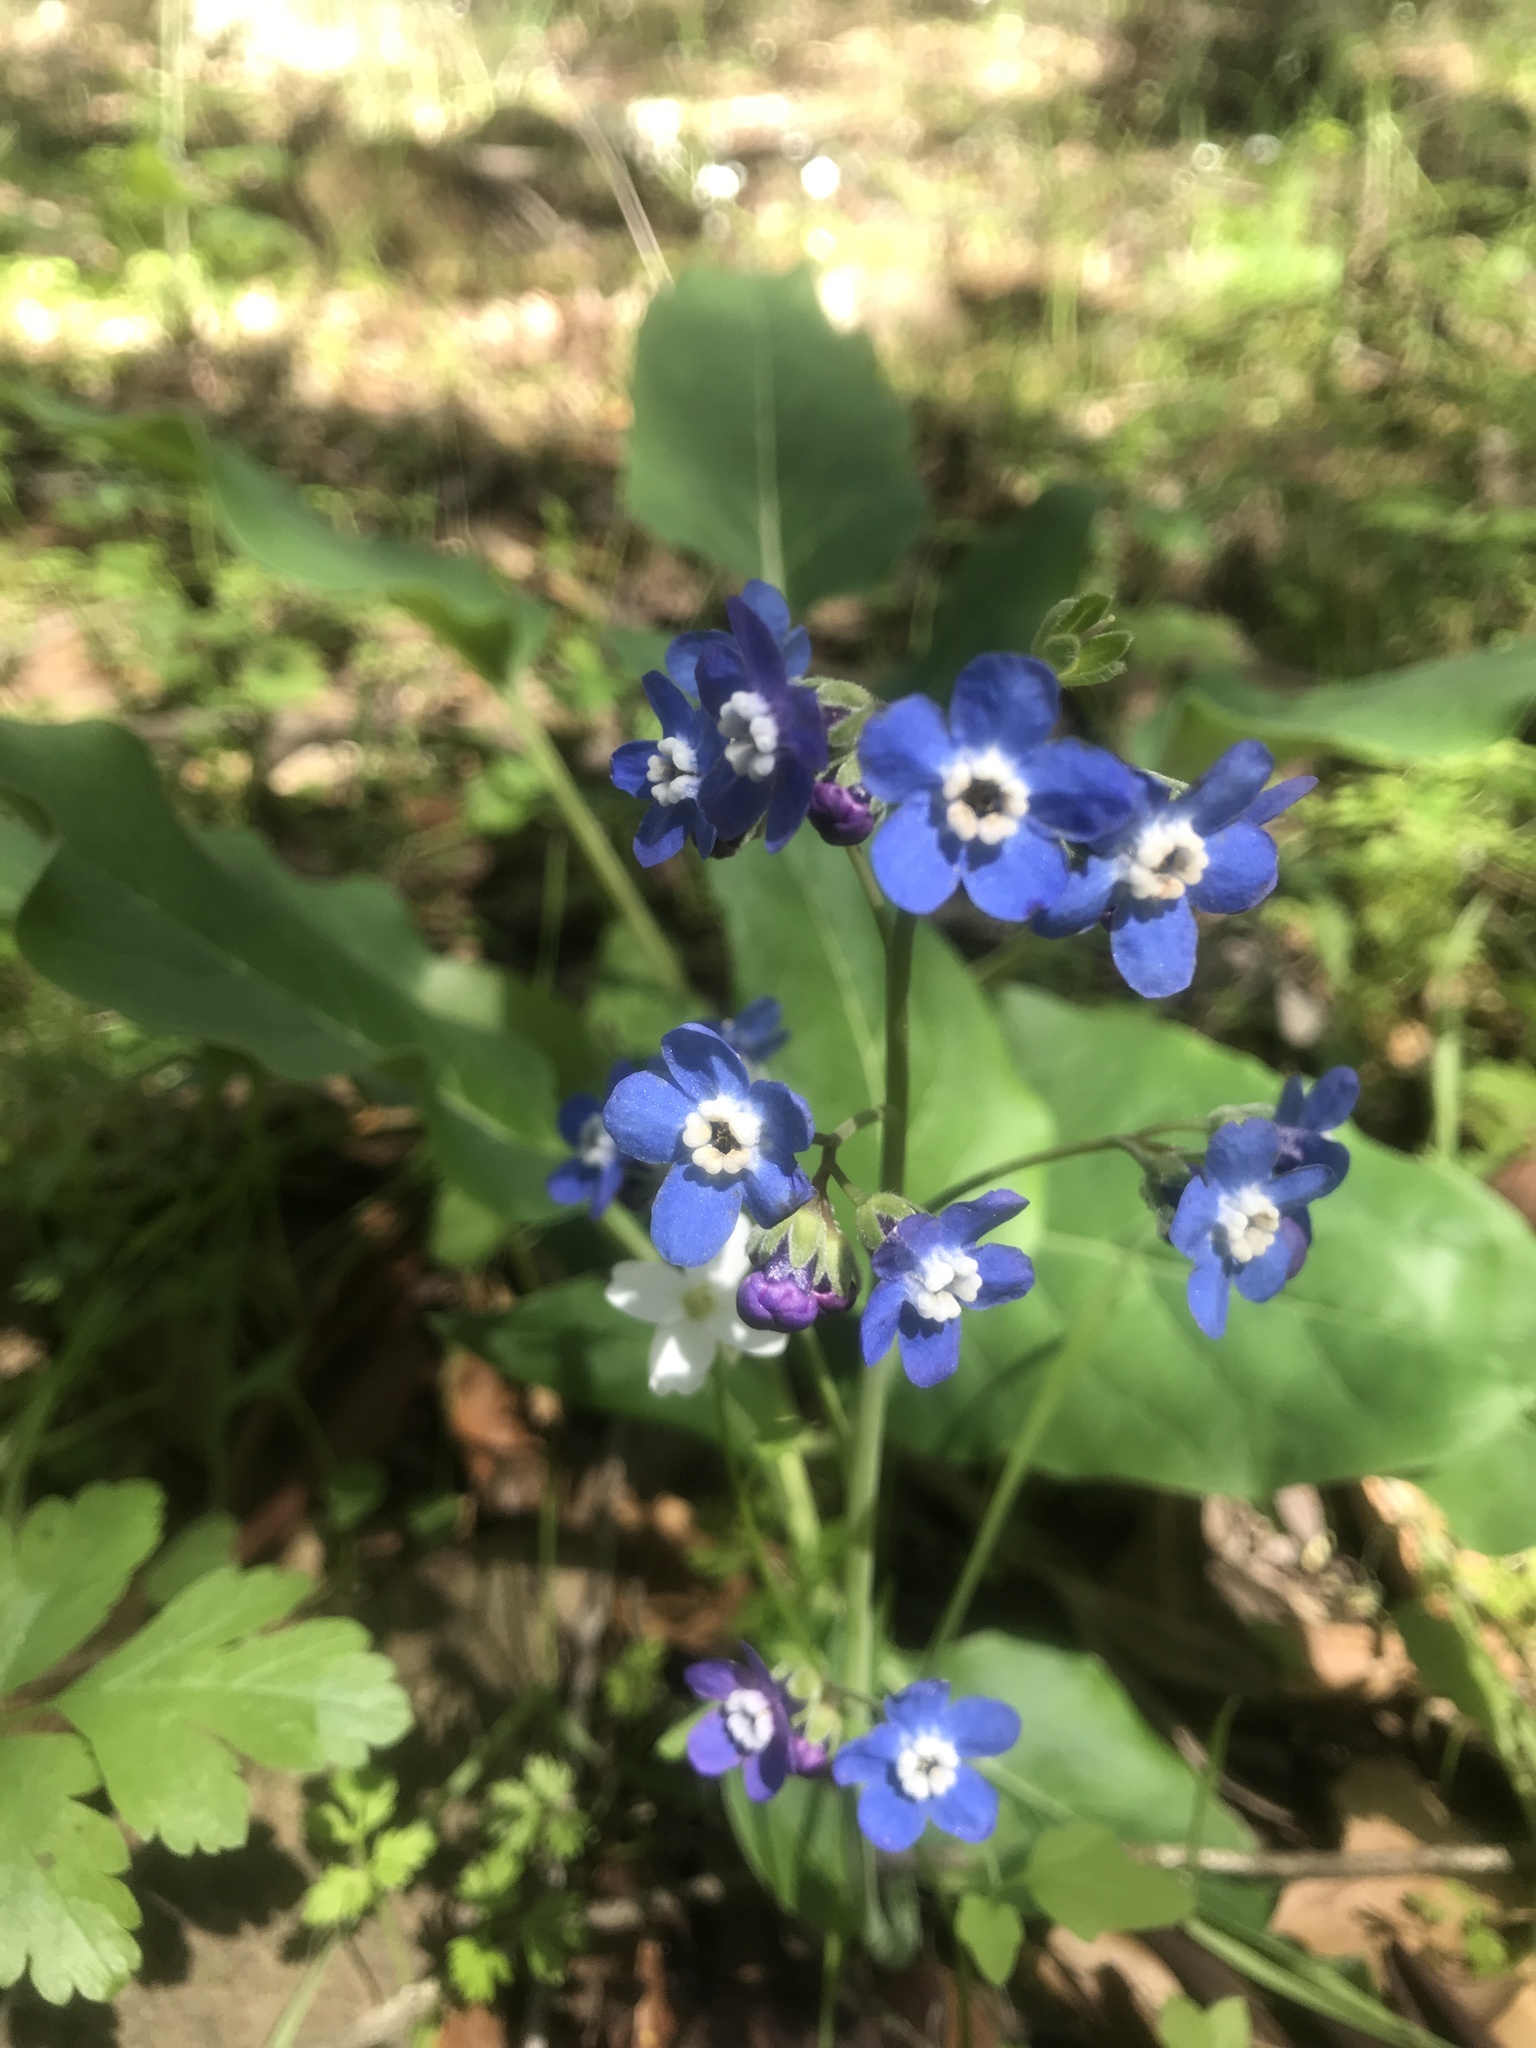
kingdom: Plantae
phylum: Tracheophyta
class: Magnoliopsida
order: Boraginales
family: Boraginaceae
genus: Adelinia
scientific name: Adelinia grande
